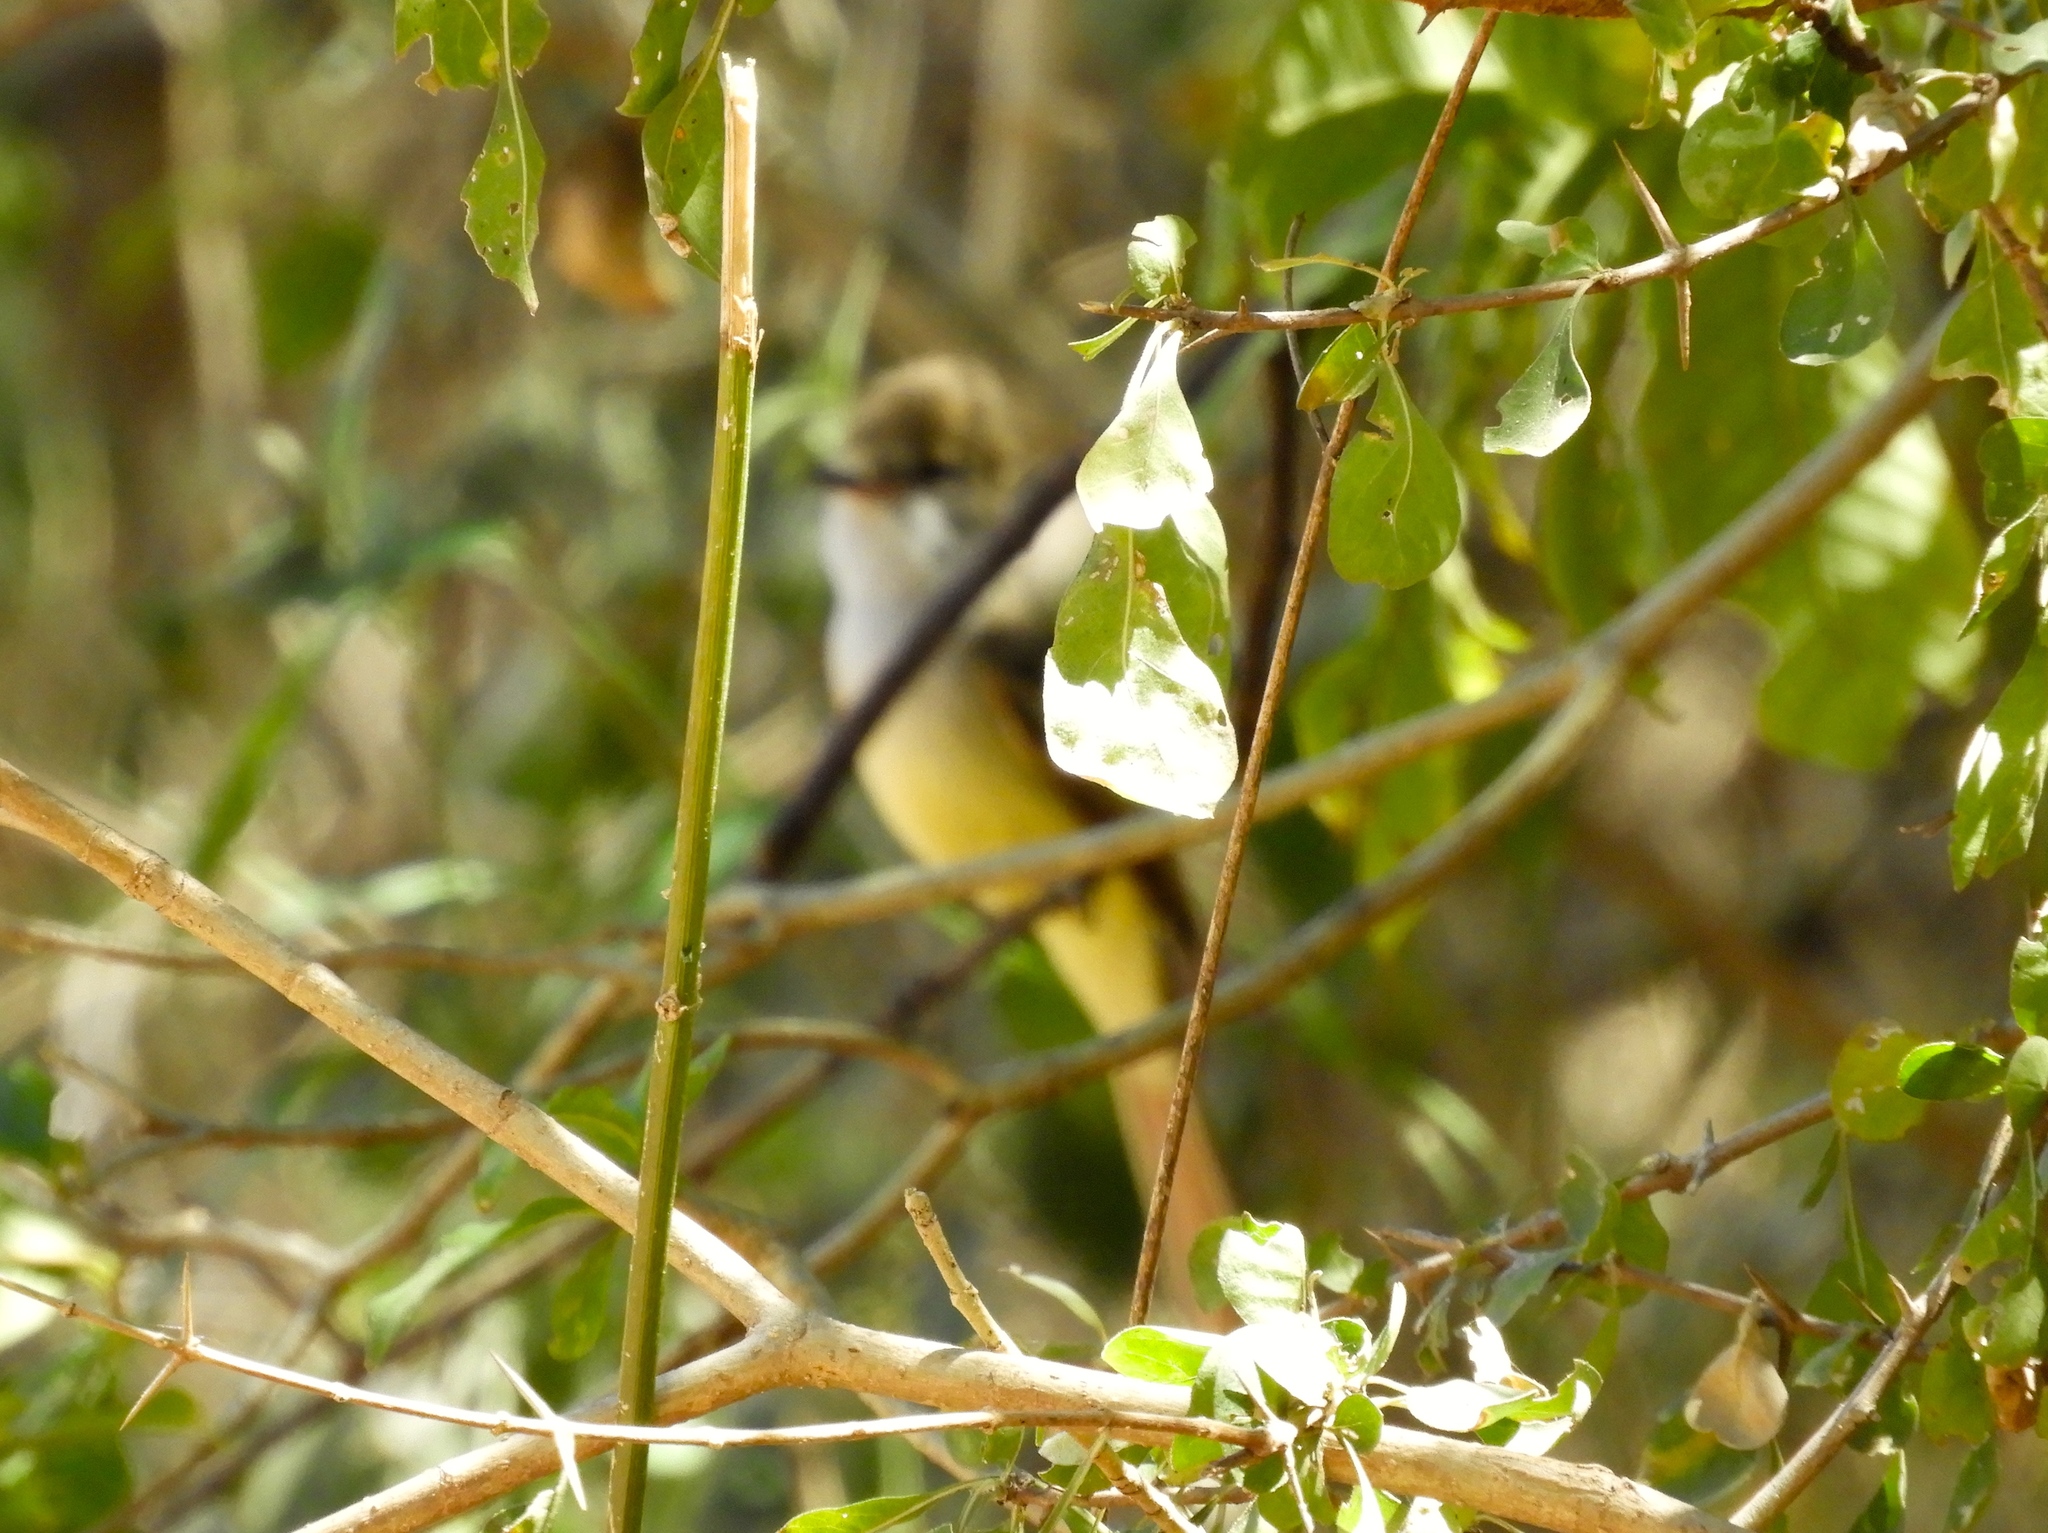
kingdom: Animalia
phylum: Chordata
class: Aves
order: Passeriformes
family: Tyrannidae
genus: Myiarchus
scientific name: Myiarchus
